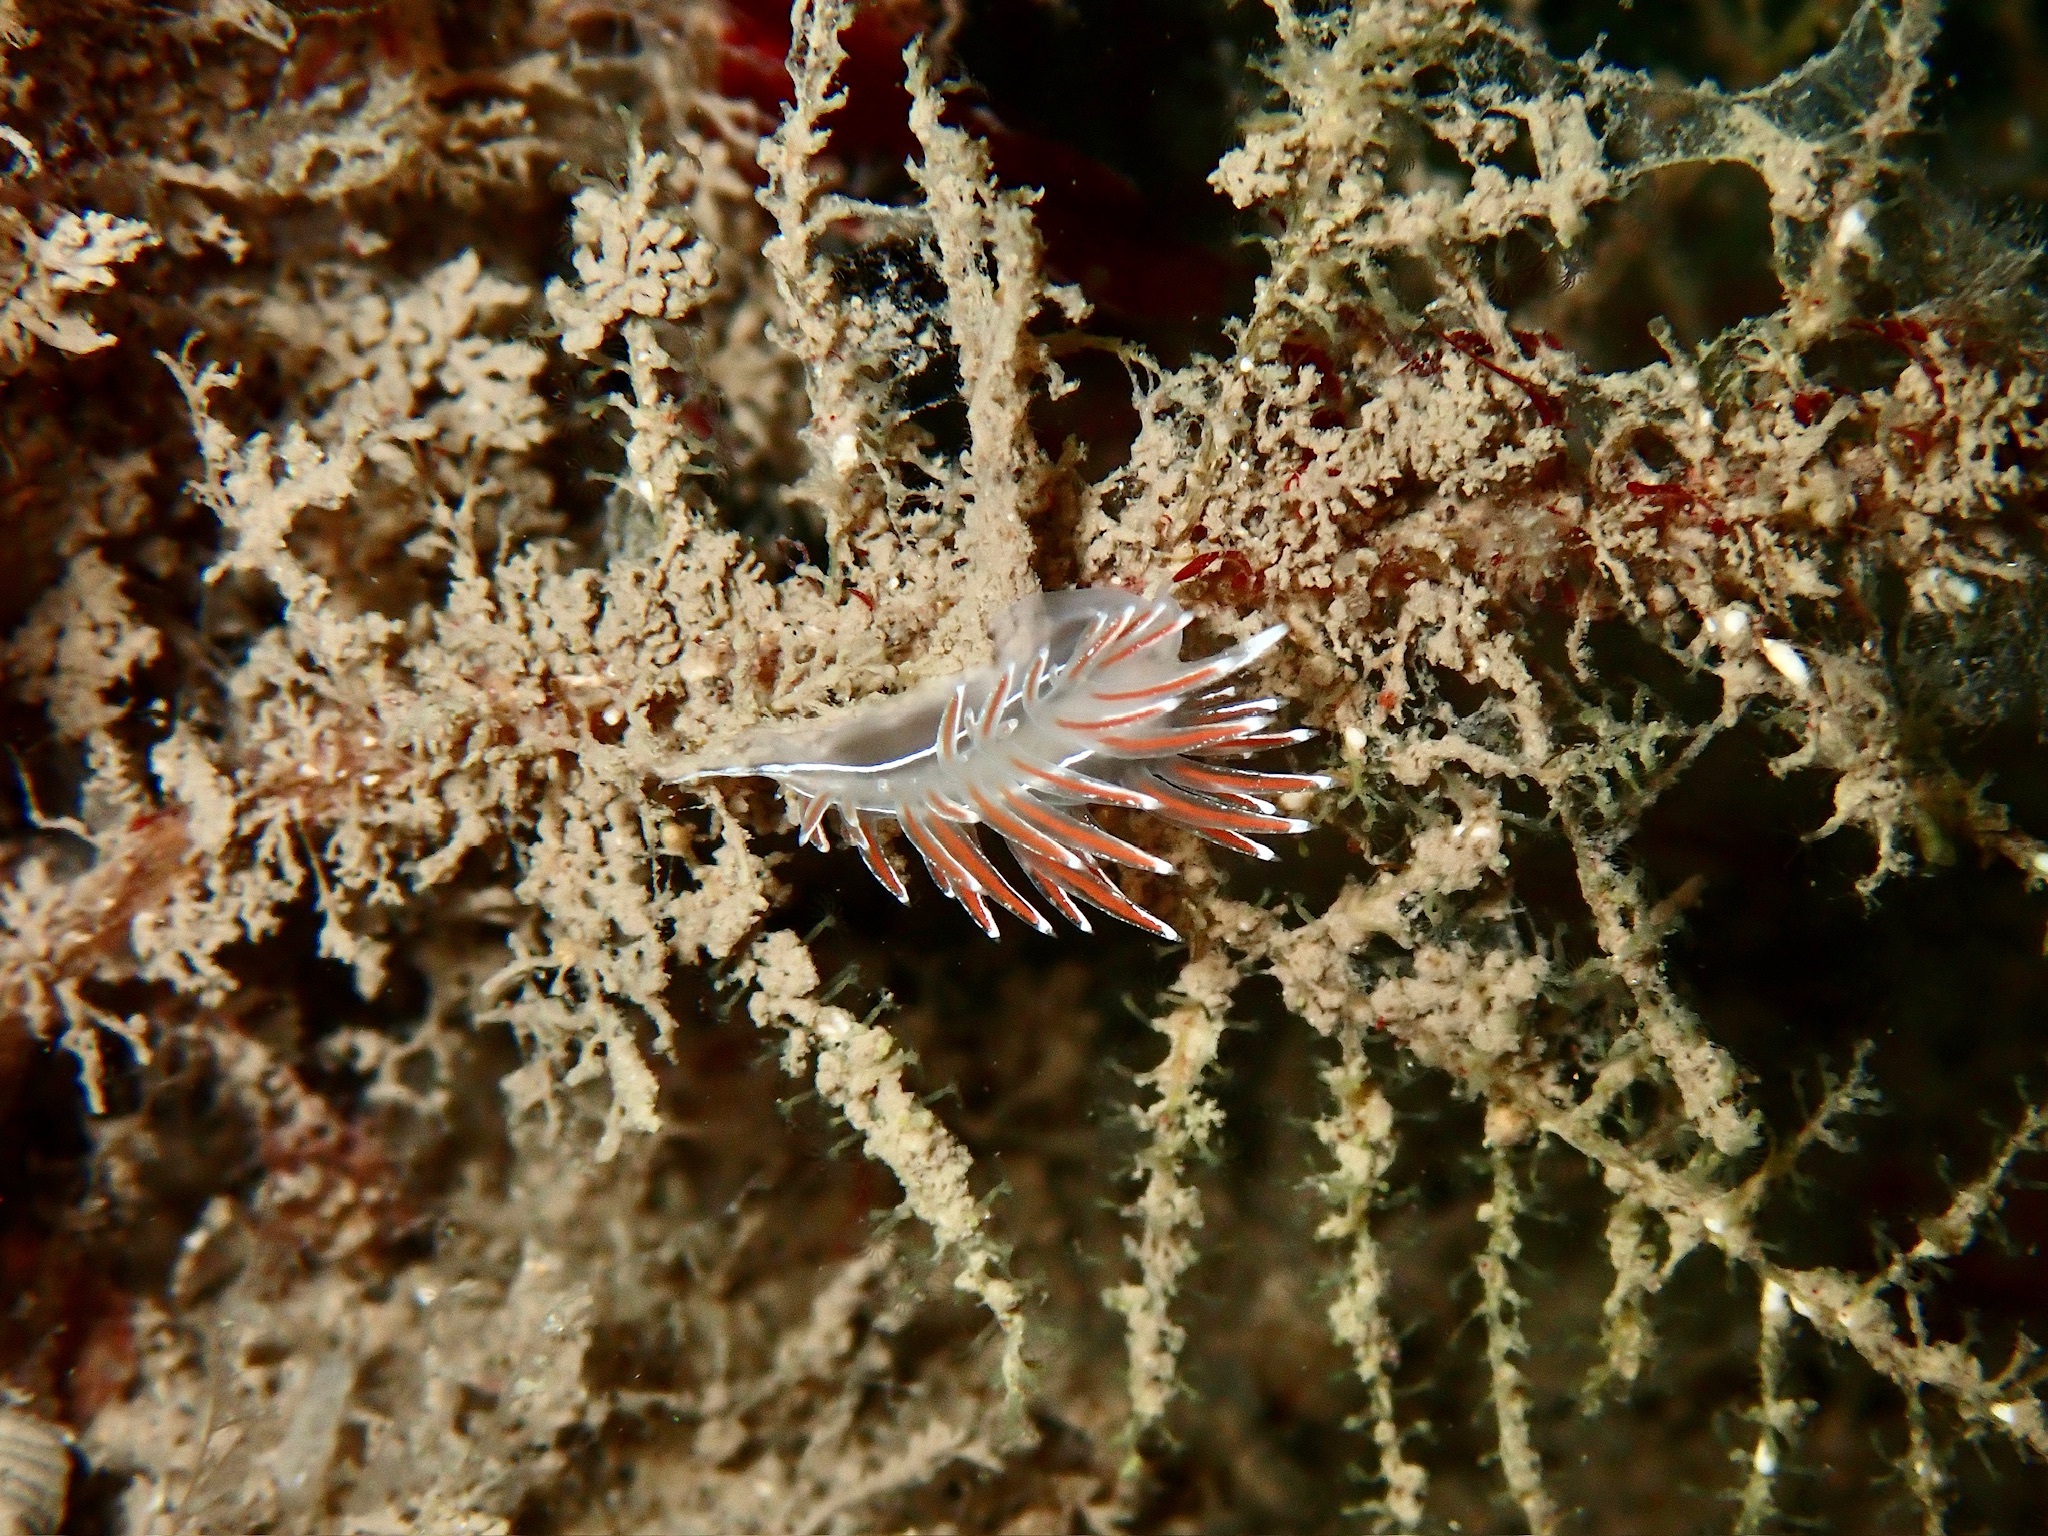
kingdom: Animalia
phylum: Mollusca
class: Gastropoda
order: Nudibranchia
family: Coryphellidae
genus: Coryphella
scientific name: Coryphella lineata
